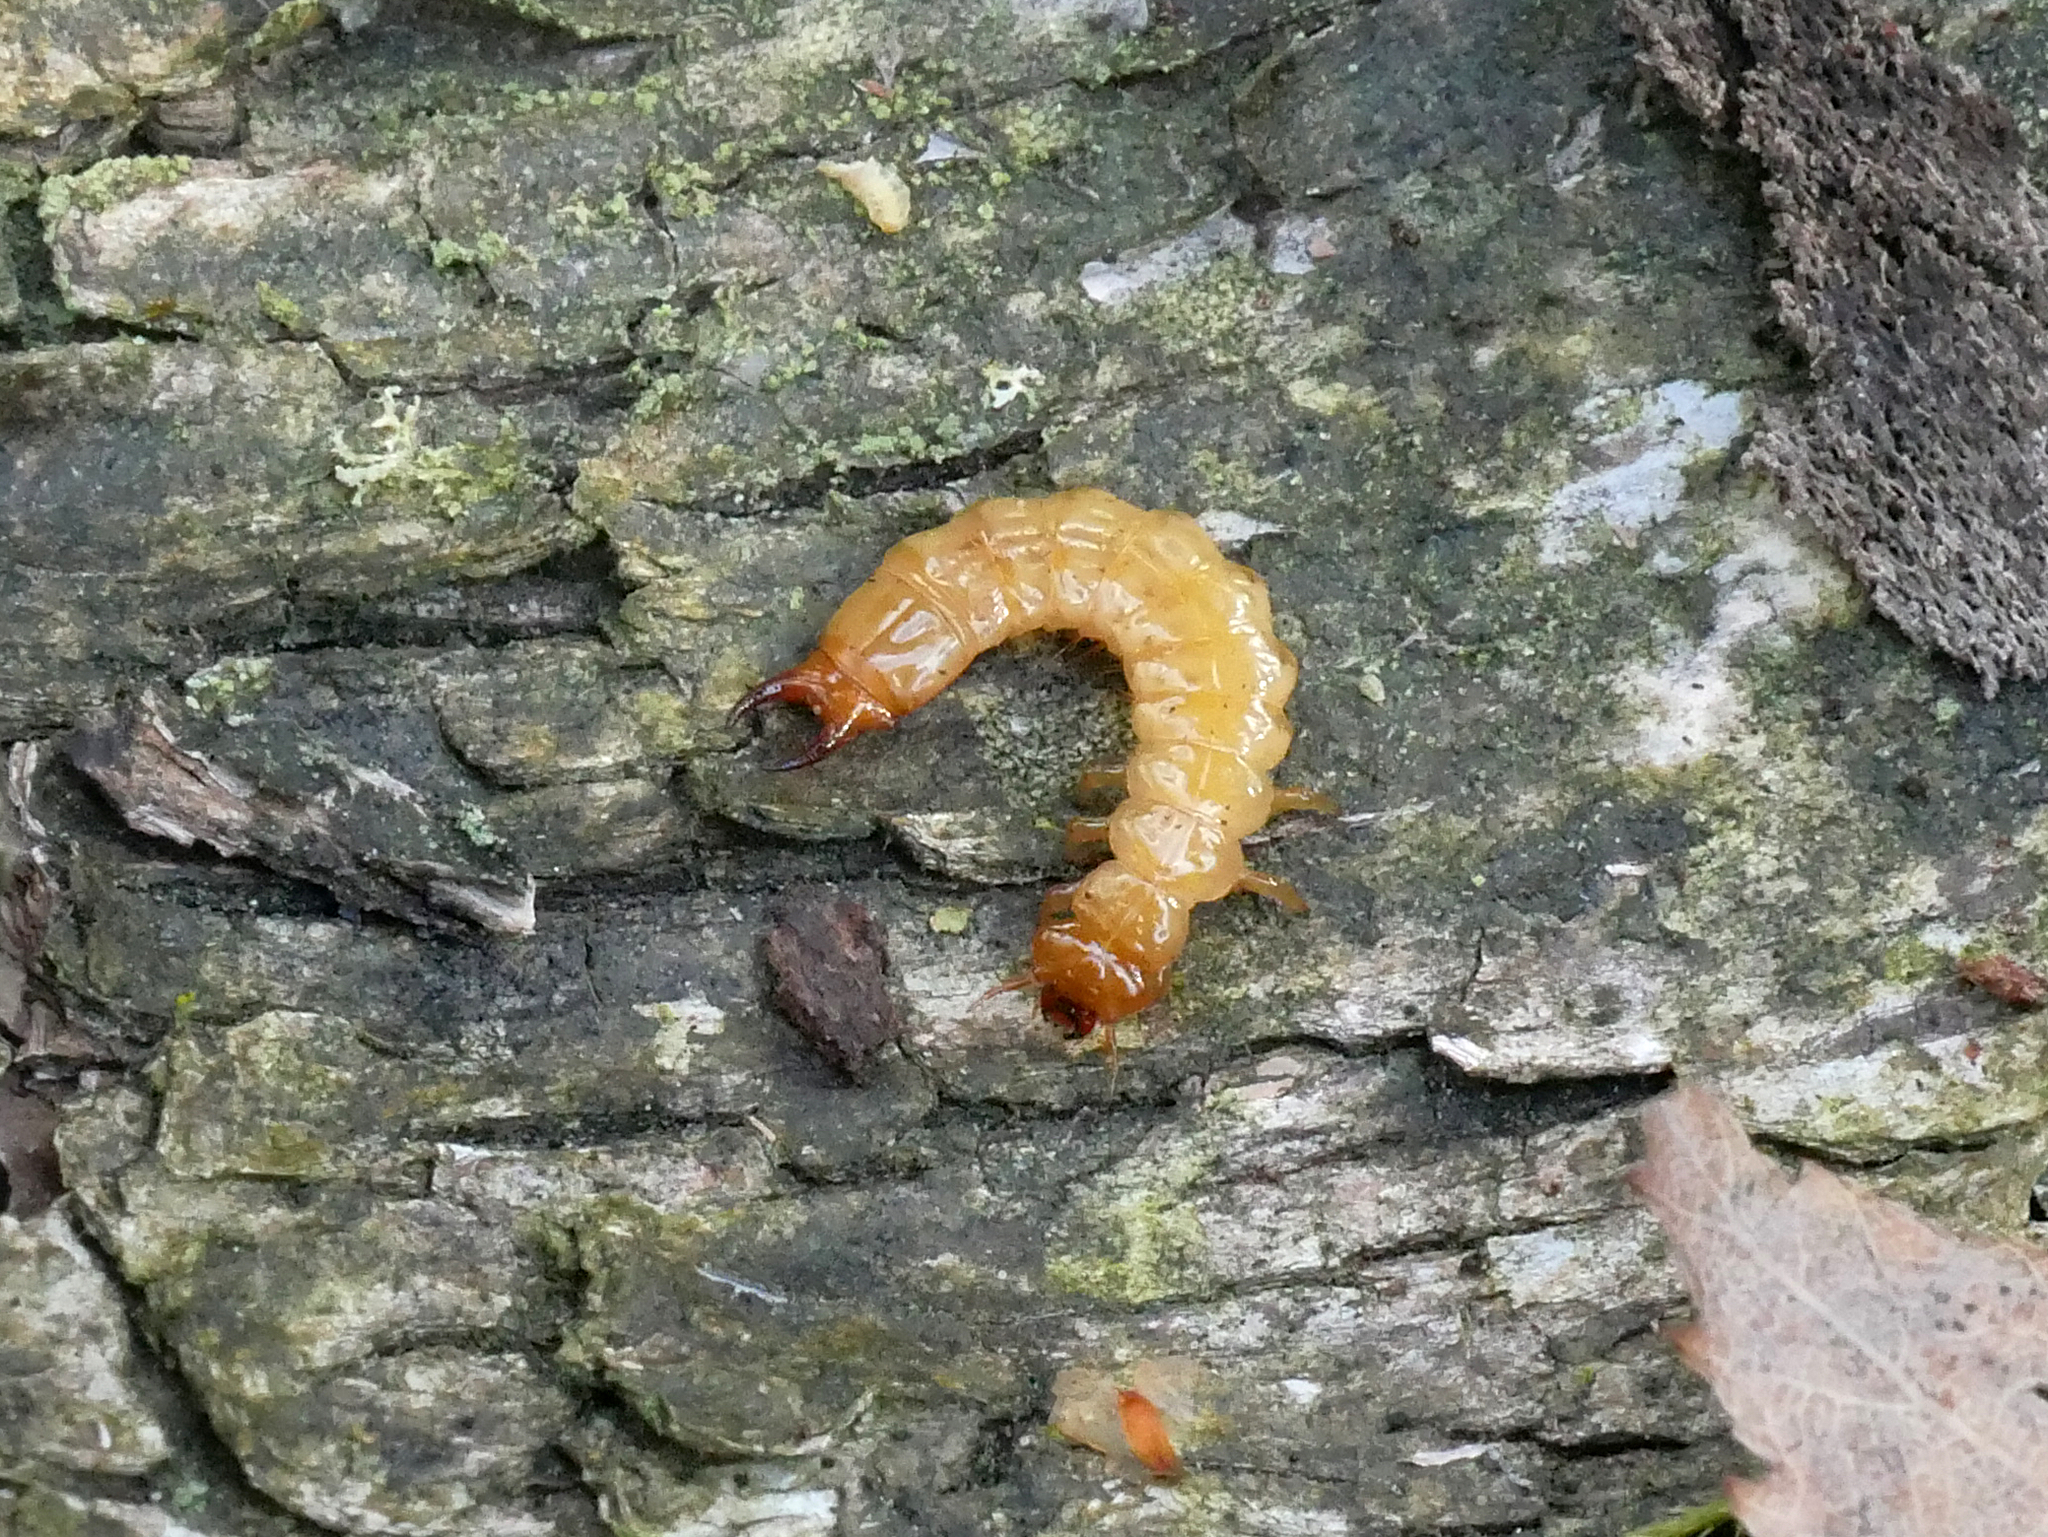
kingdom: Animalia
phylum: Arthropoda
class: Insecta
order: Coleoptera
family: Pyrochroidae
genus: Schizotus
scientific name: Schizotus pectinicornis
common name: Scarce cardinal beetle
